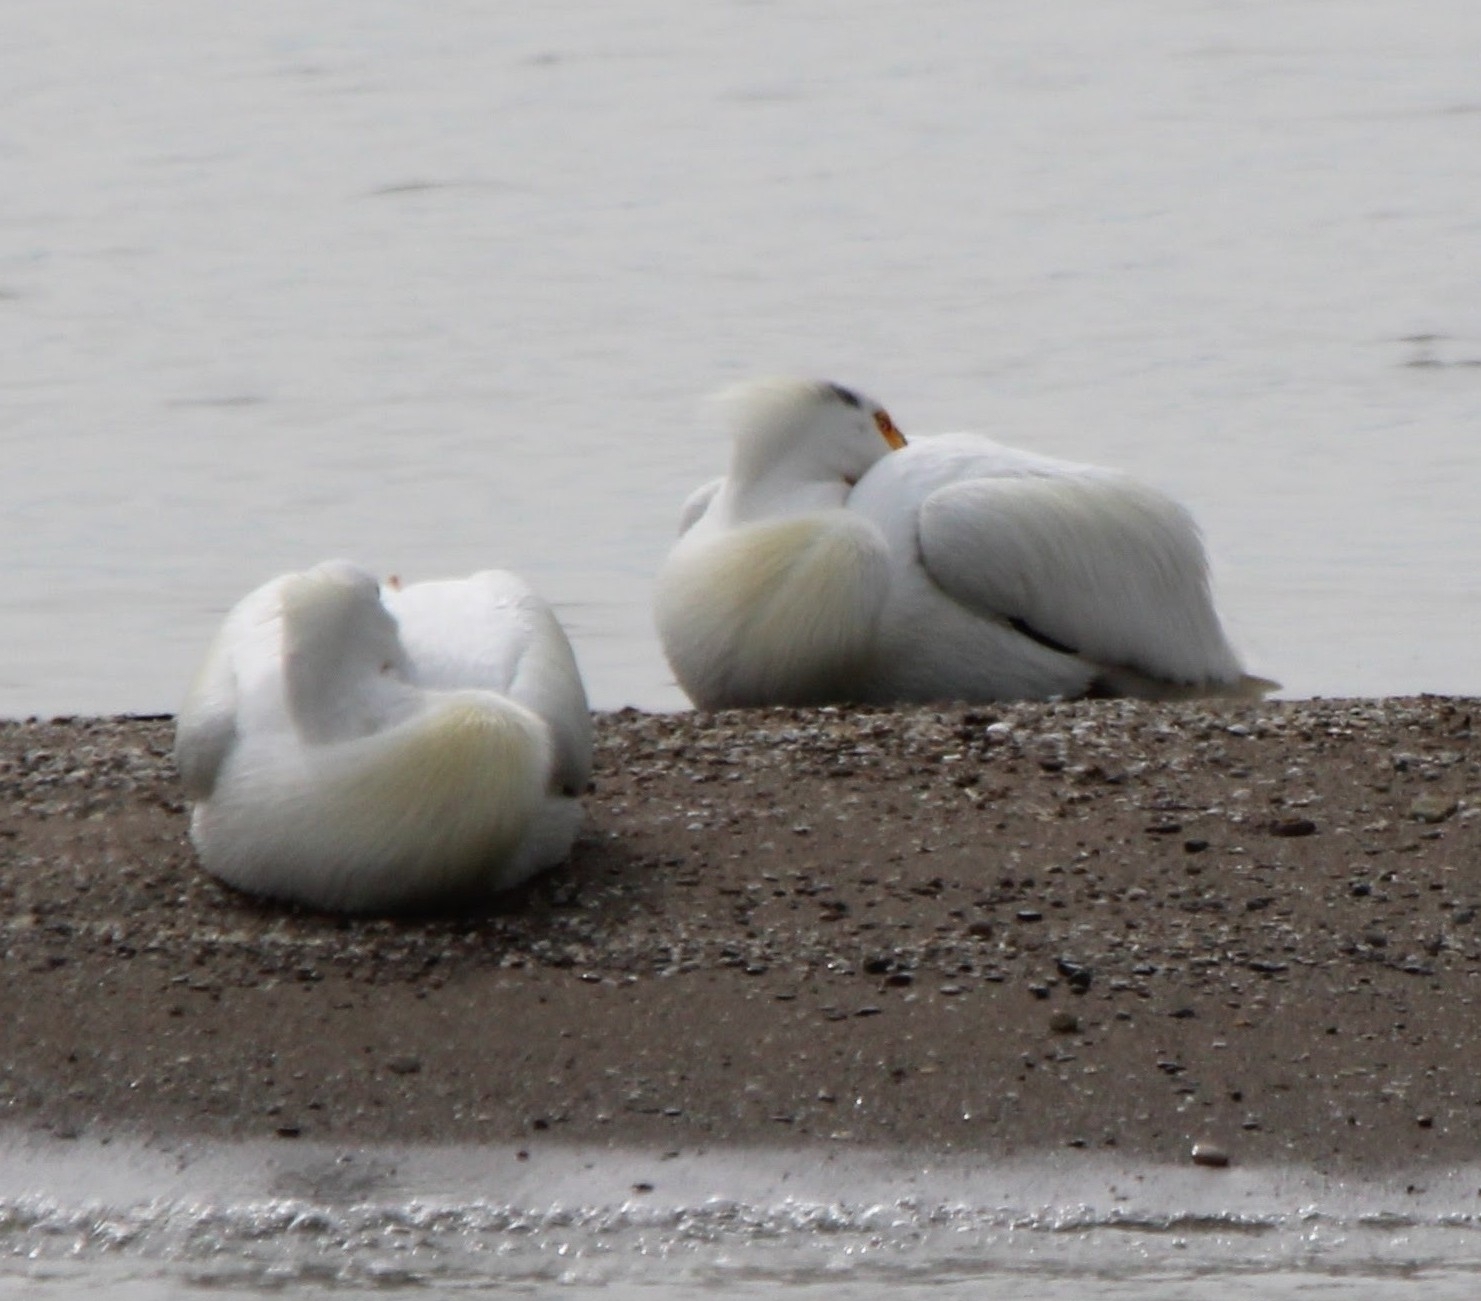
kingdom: Animalia
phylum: Chordata
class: Aves
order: Pelecaniformes
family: Pelecanidae
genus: Pelecanus
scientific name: Pelecanus erythrorhynchos
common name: American white pelican
